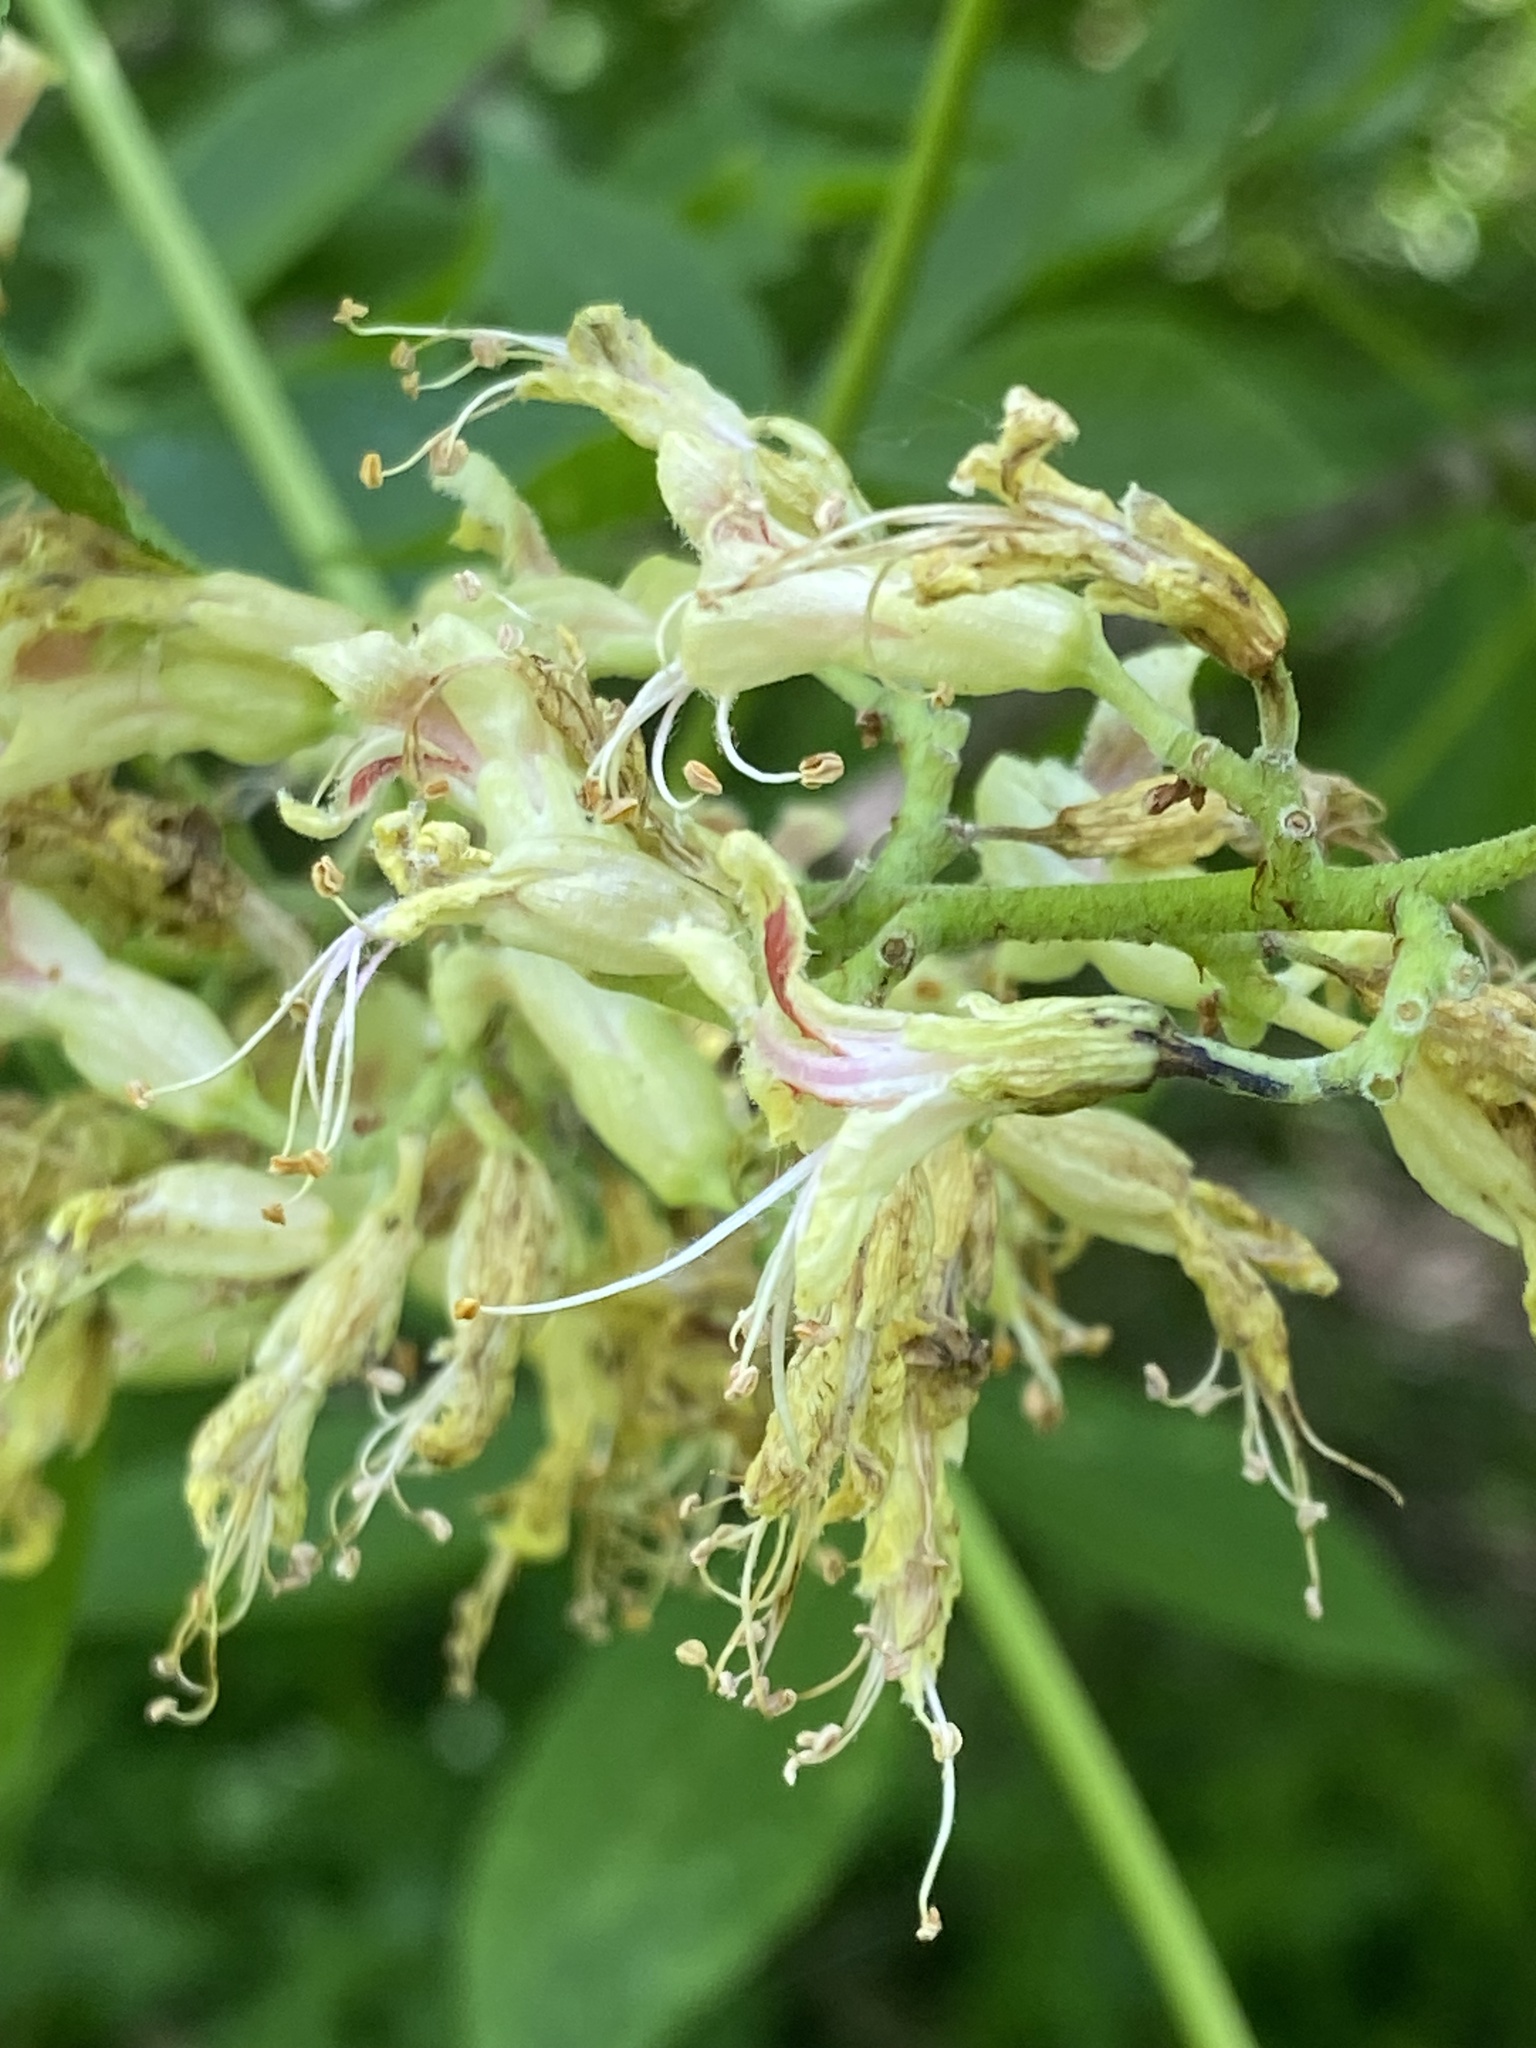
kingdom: Plantae
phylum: Tracheophyta
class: Magnoliopsida
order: Sapindales
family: Sapindaceae
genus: Aesculus
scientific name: Aesculus glabra
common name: Ohio buckeye
